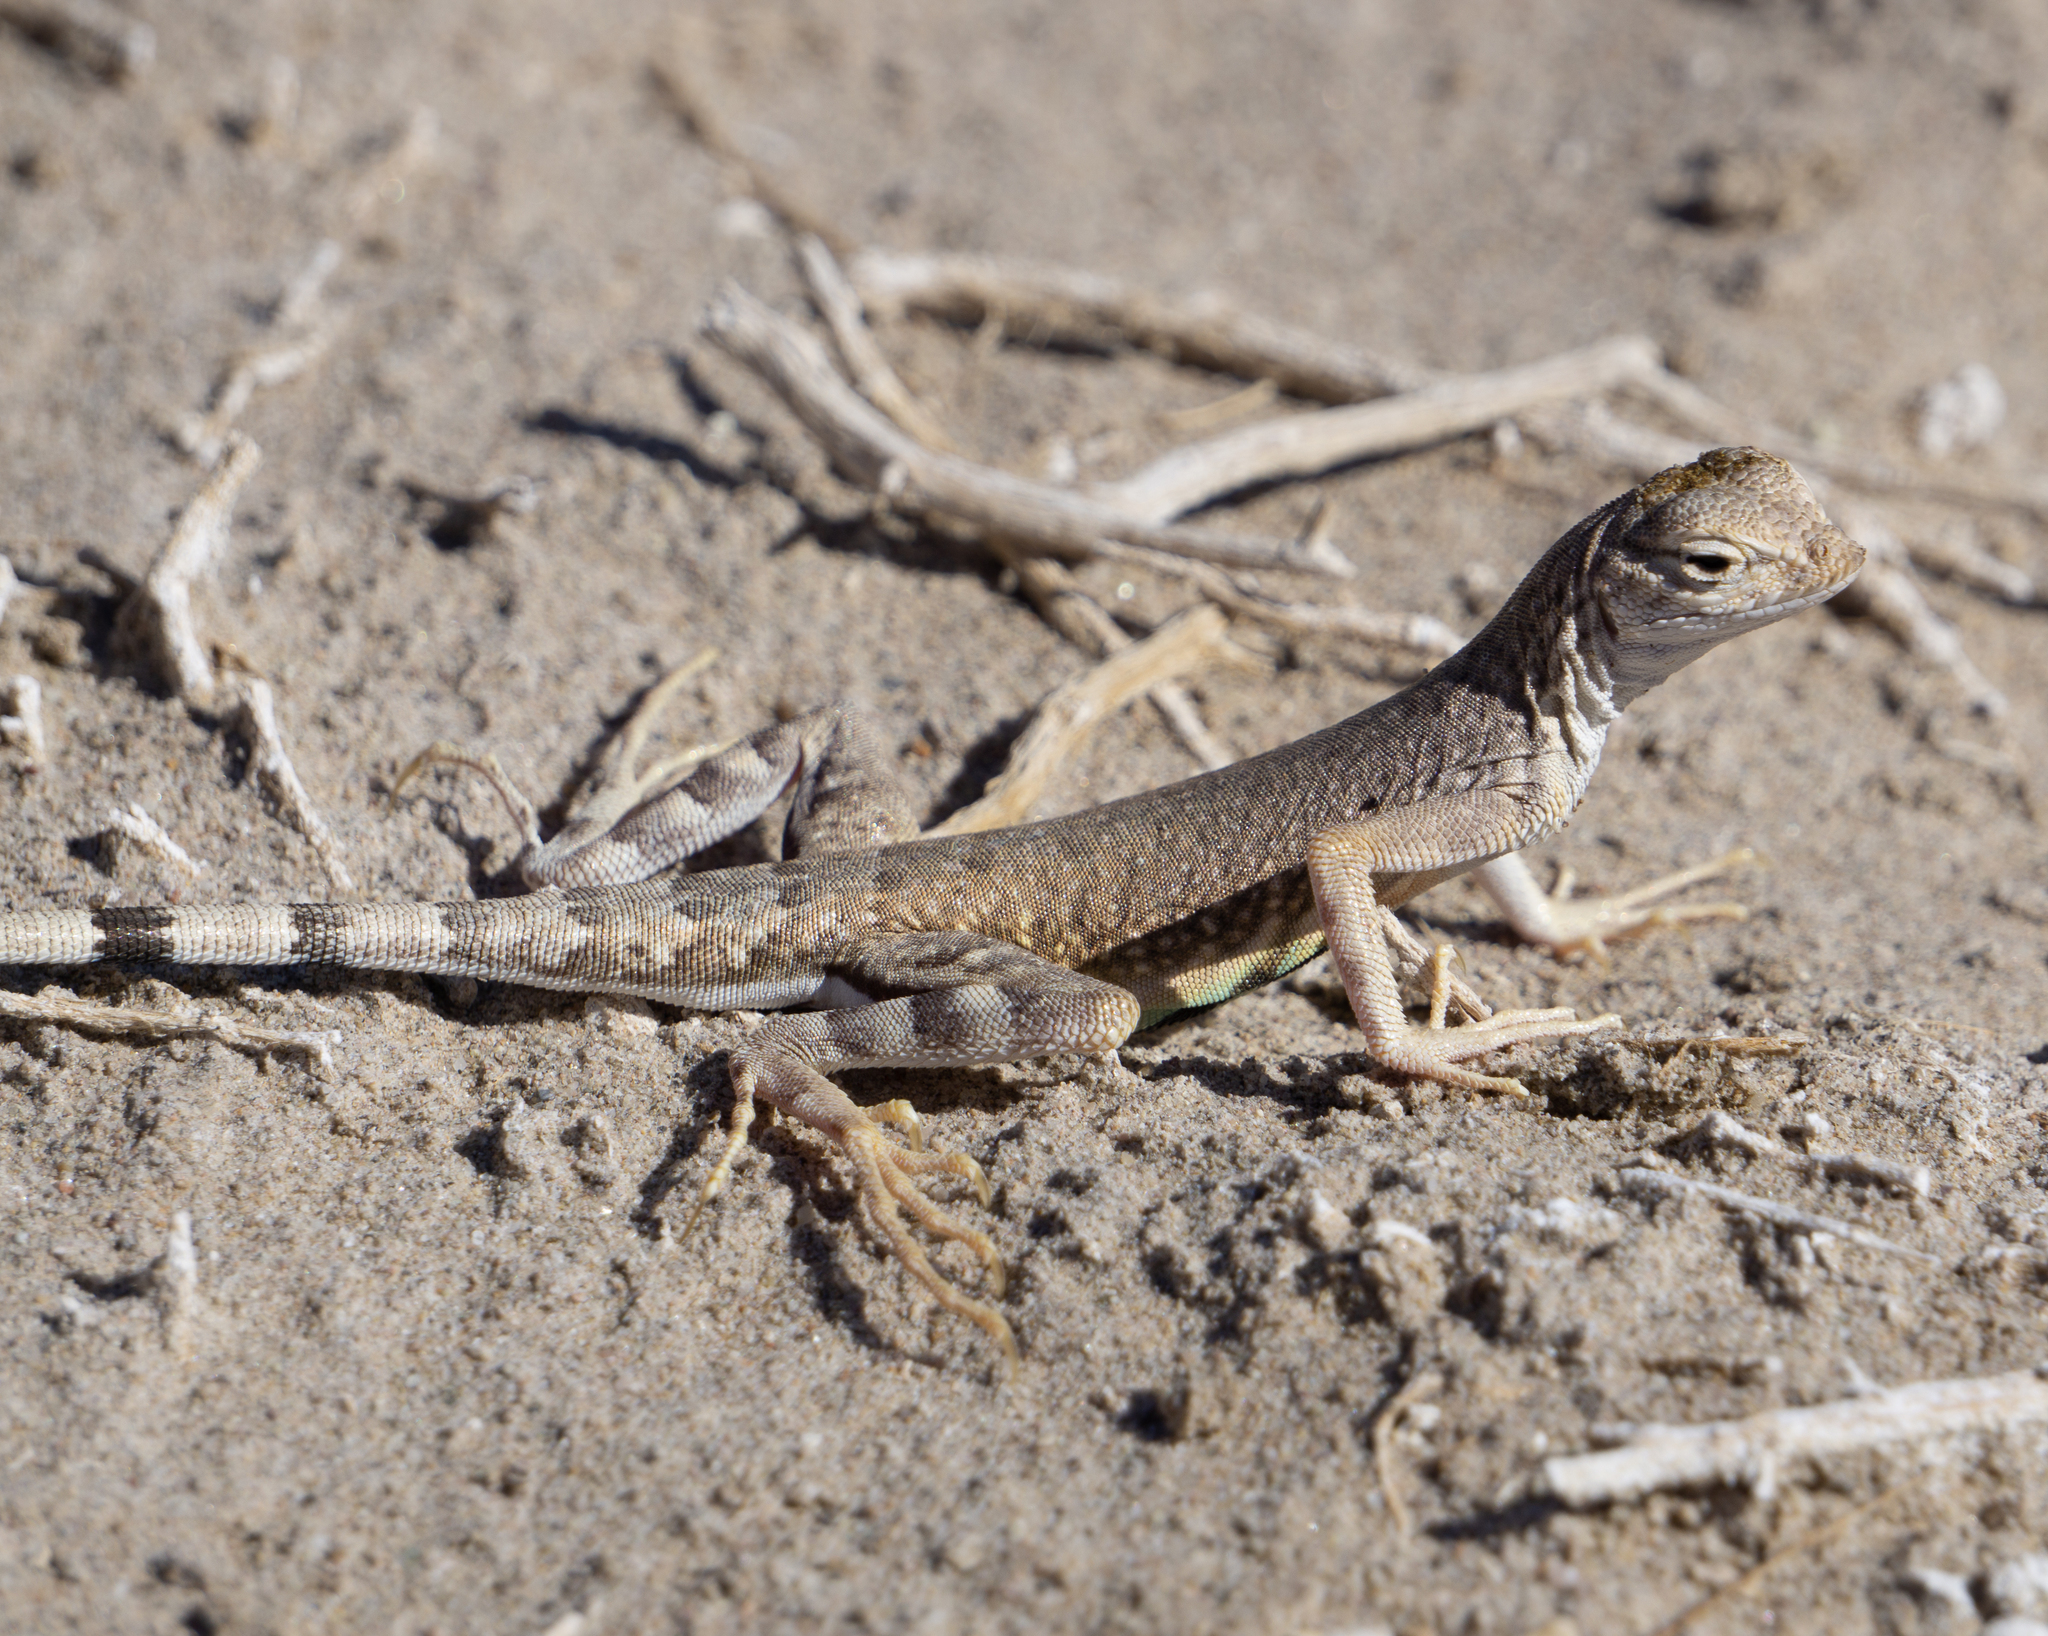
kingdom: Animalia
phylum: Chordata
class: Squamata
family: Phrynosomatidae
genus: Callisaurus
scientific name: Callisaurus draconoides
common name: Zebra-tailed lizard
